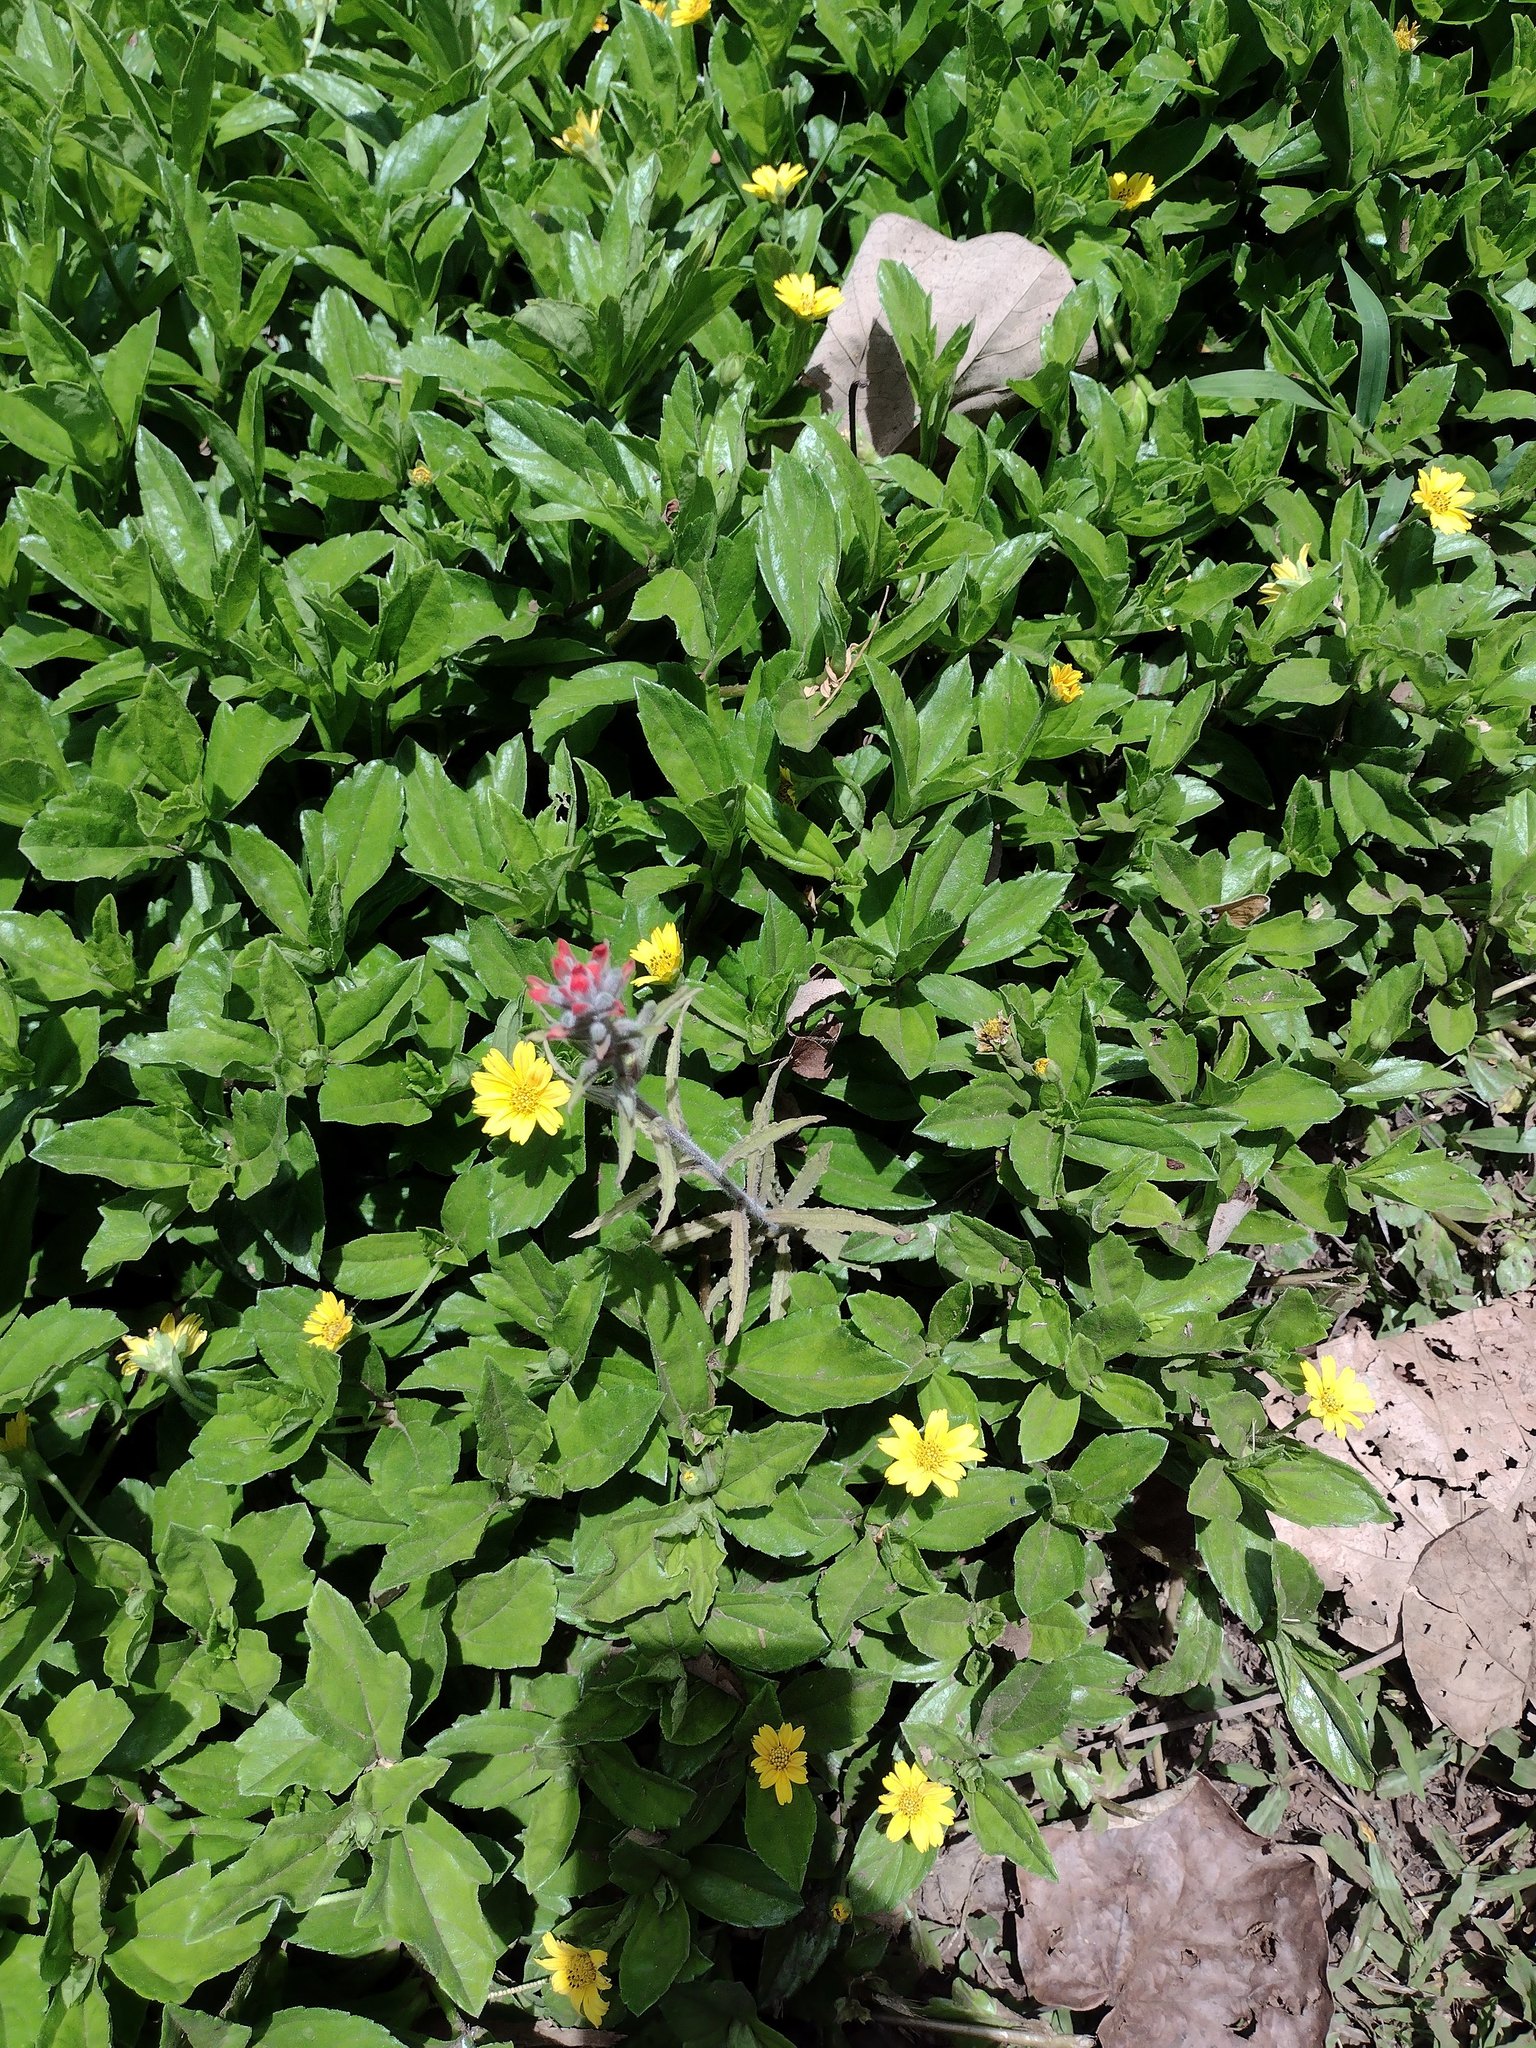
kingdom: Plantae
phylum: Tracheophyta
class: Magnoliopsida
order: Lamiales
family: Orobanchaceae
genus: Castilleja
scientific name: Castilleja arvensis
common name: Indian paintbrush
